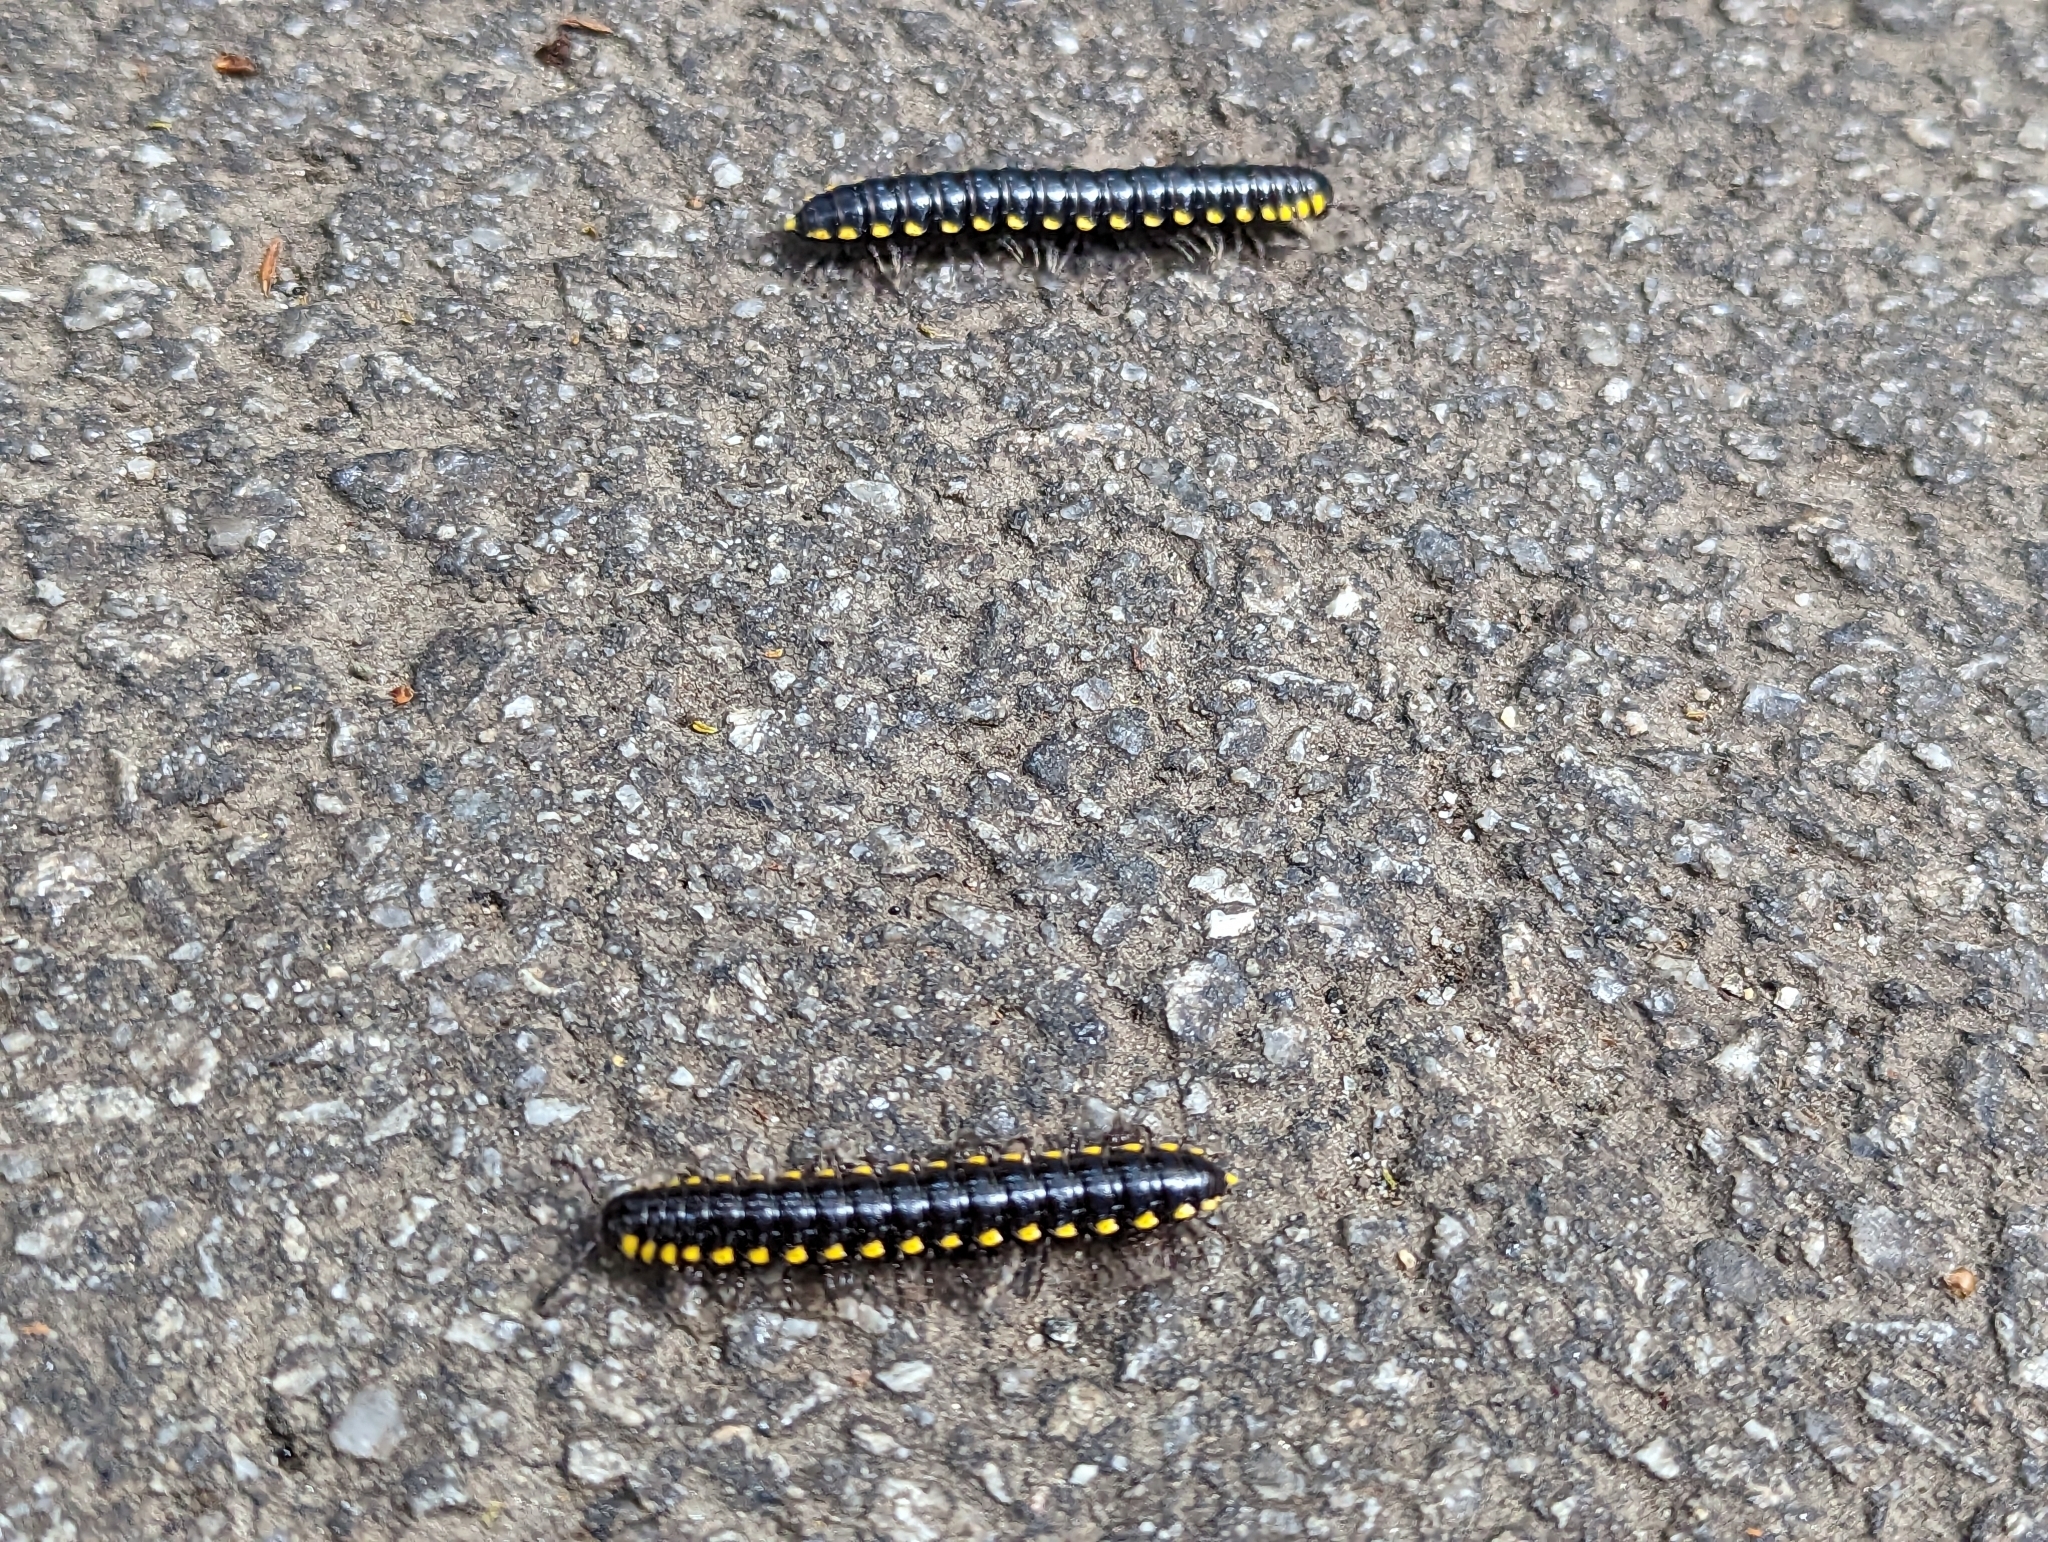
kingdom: Animalia
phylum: Arthropoda
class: Diplopoda
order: Polydesmida
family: Xystodesmidae
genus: Harpaphe
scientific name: Harpaphe haydeniana
